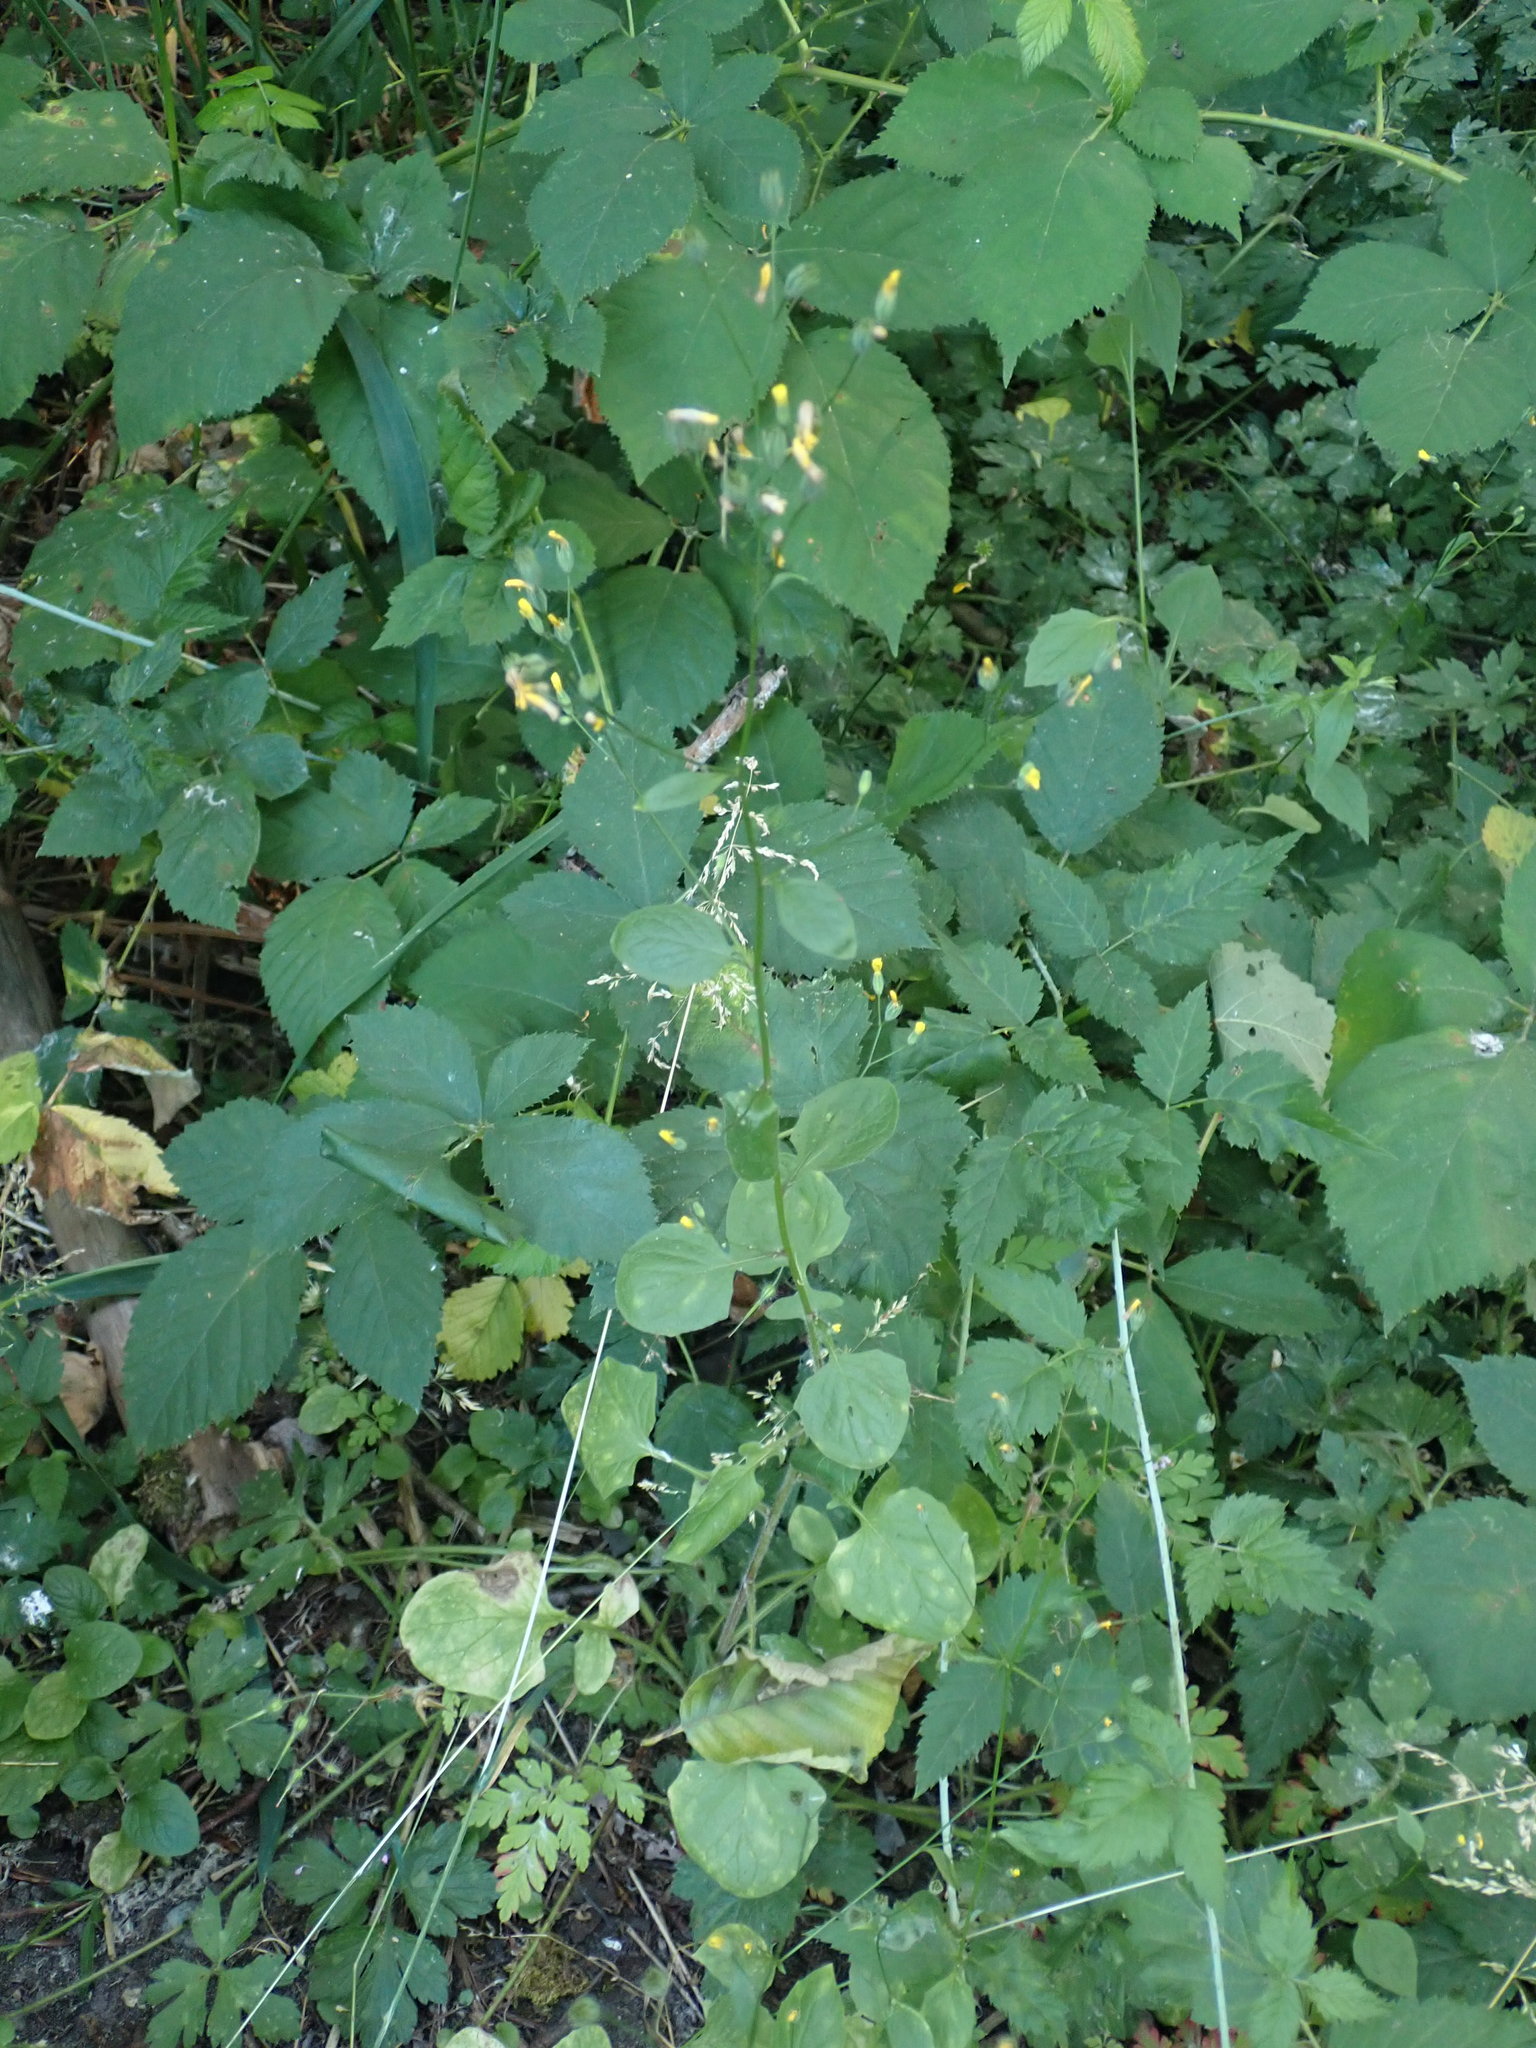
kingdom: Plantae
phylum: Tracheophyta
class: Magnoliopsida
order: Asterales
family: Asteraceae
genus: Lapsana
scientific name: Lapsana communis
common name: Nipplewort
